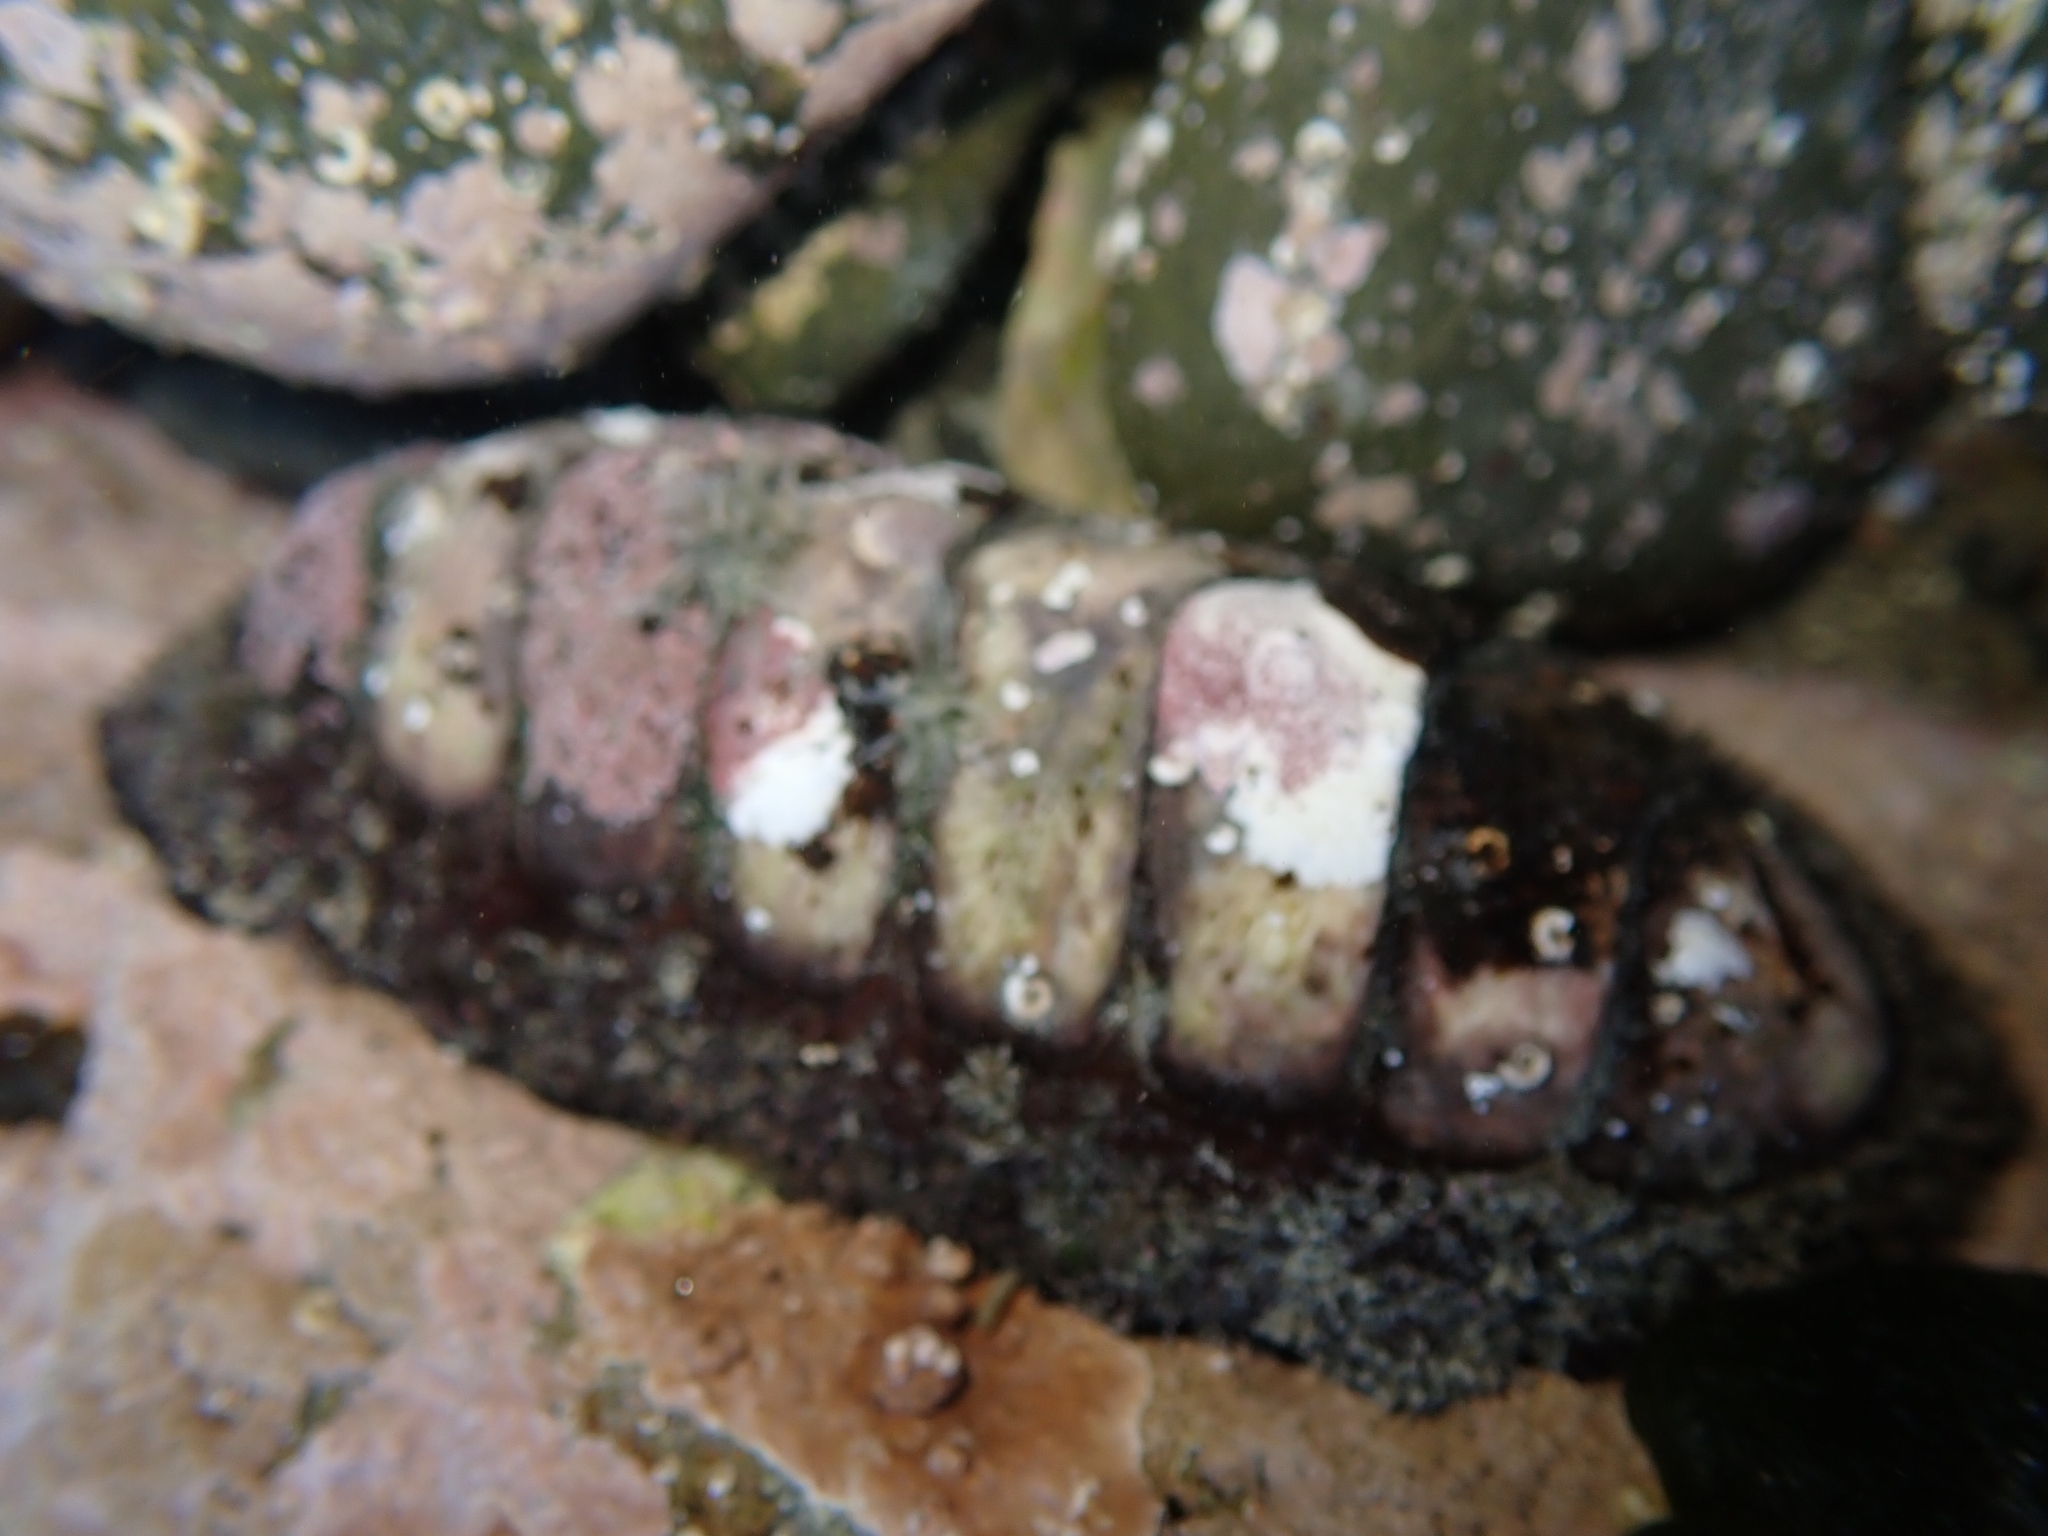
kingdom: Animalia
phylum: Mollusca
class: Polyplacophora
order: Callochitonida
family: Callochitonidae
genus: Eudoxochiton
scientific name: Eudoxochiton nobilis
